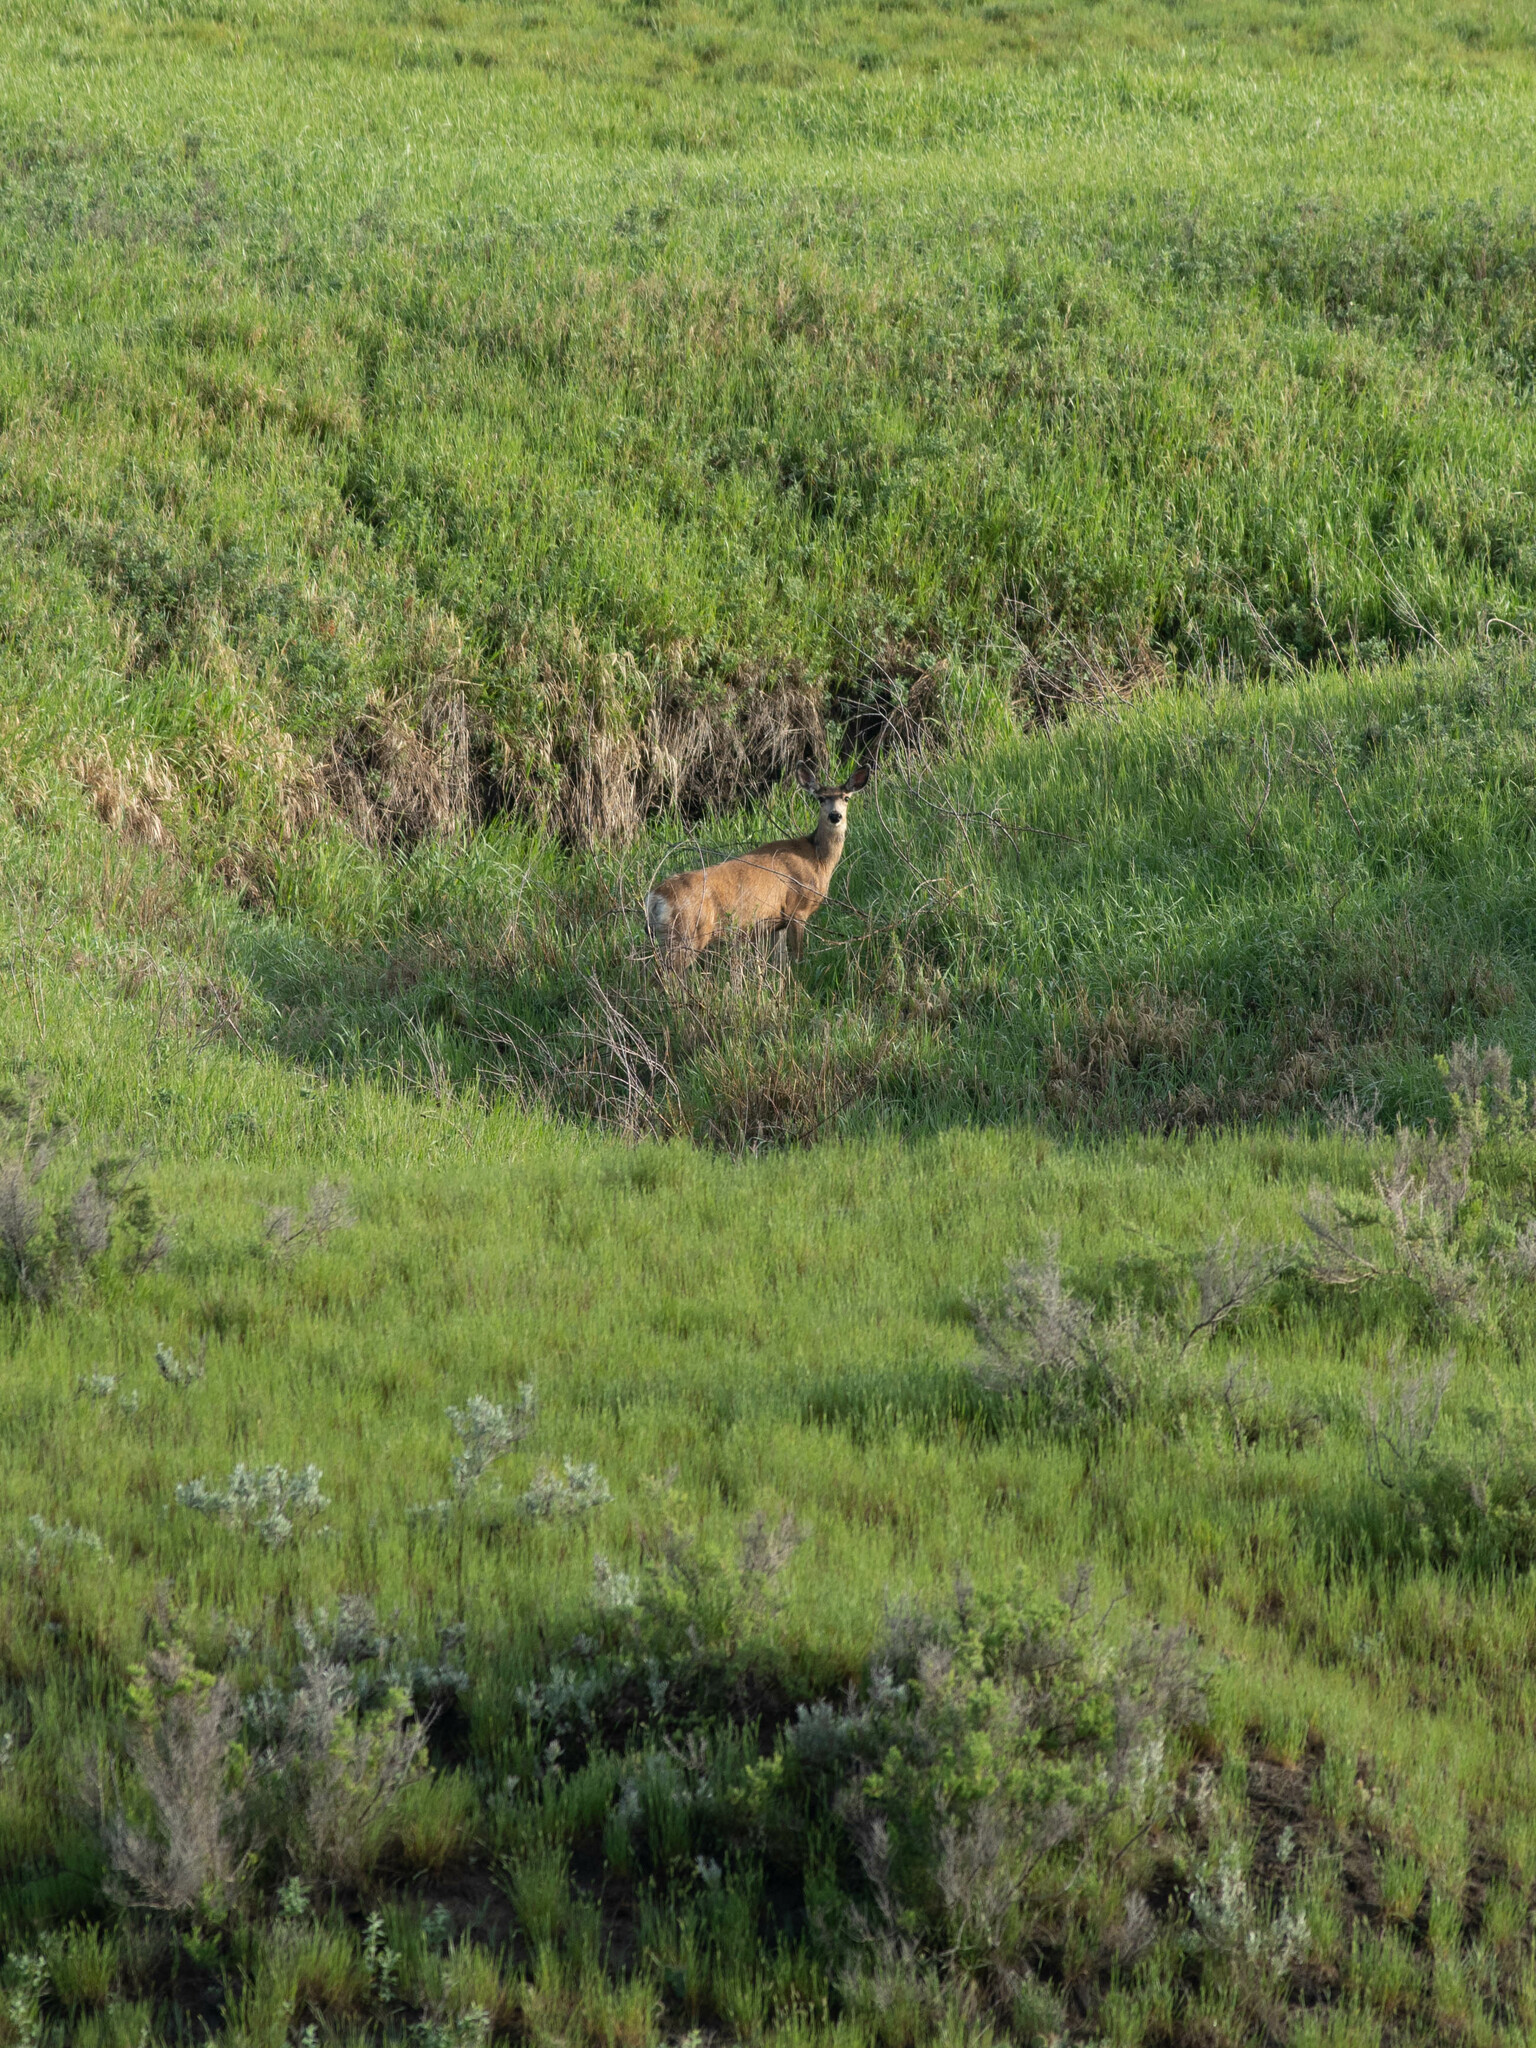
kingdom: Animalia
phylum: Chordata
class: Mammalia
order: Artiodactyla
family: Cervidae
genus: Odocoileus
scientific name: Odocoileus virginianus
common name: White-tailed deer
